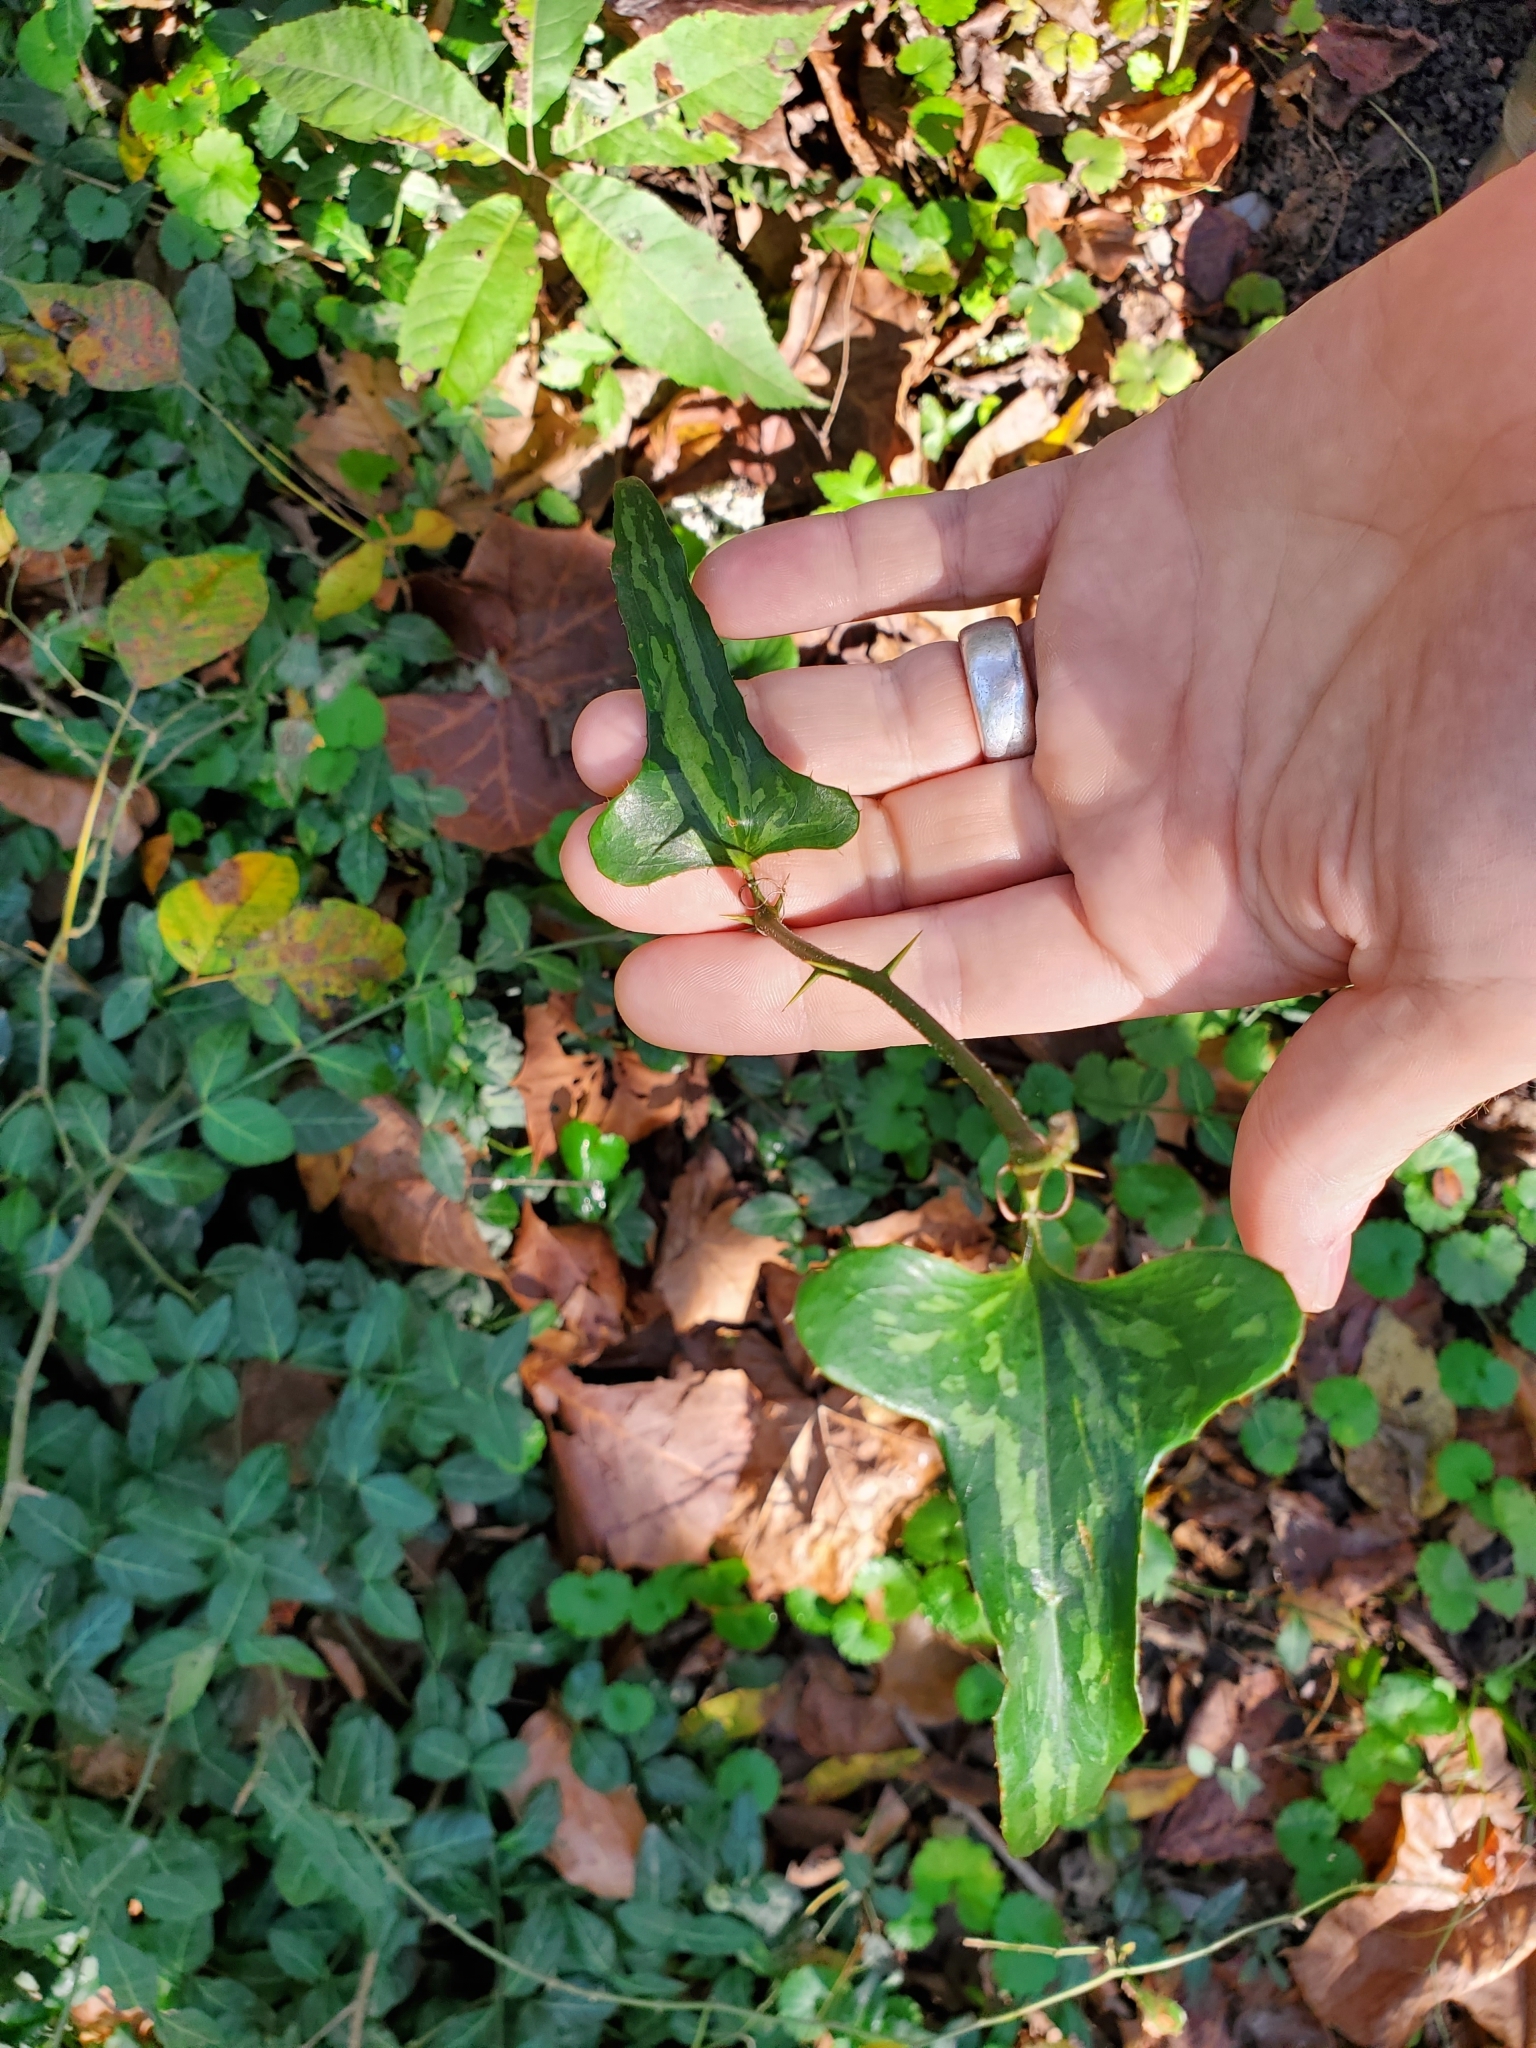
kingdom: Plantae
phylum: Tracheophyta
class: Liliopsida
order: Liliales
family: Smilacaceae
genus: Smilax
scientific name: Smilax bona-nox
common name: Catbrier
